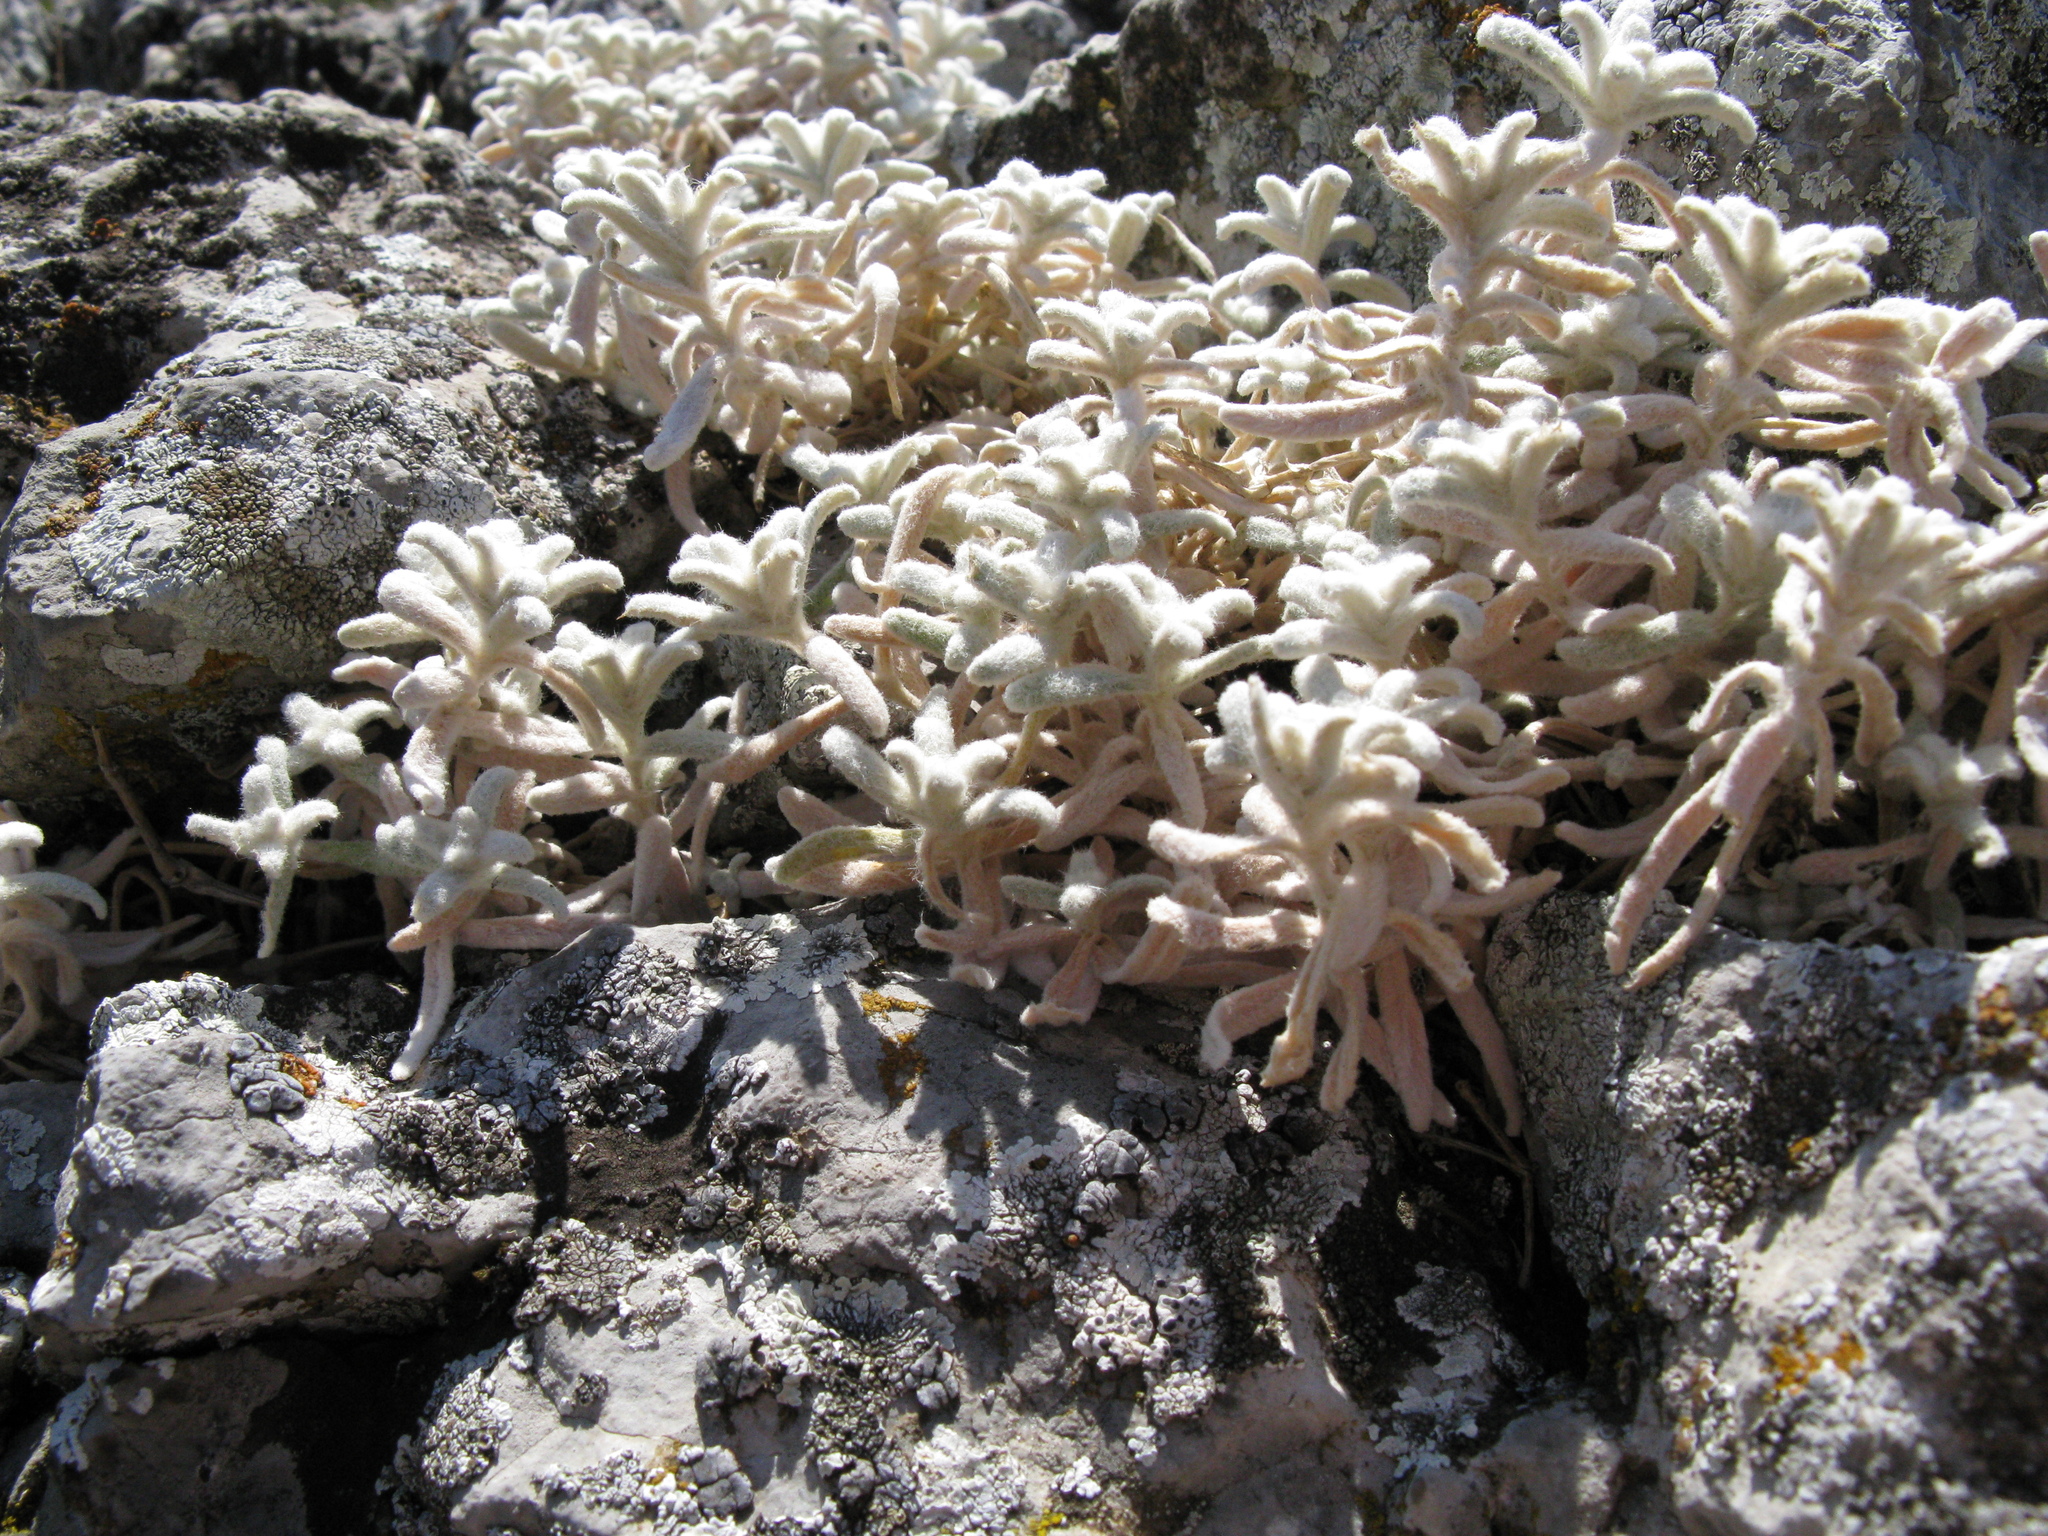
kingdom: Plantae
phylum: Tracheophyta
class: Magnoliopsida
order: Caryophyllales
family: Caryophyllaceae
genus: Cerastium
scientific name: Cerastium biebersteinii
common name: Snow-in-summer
